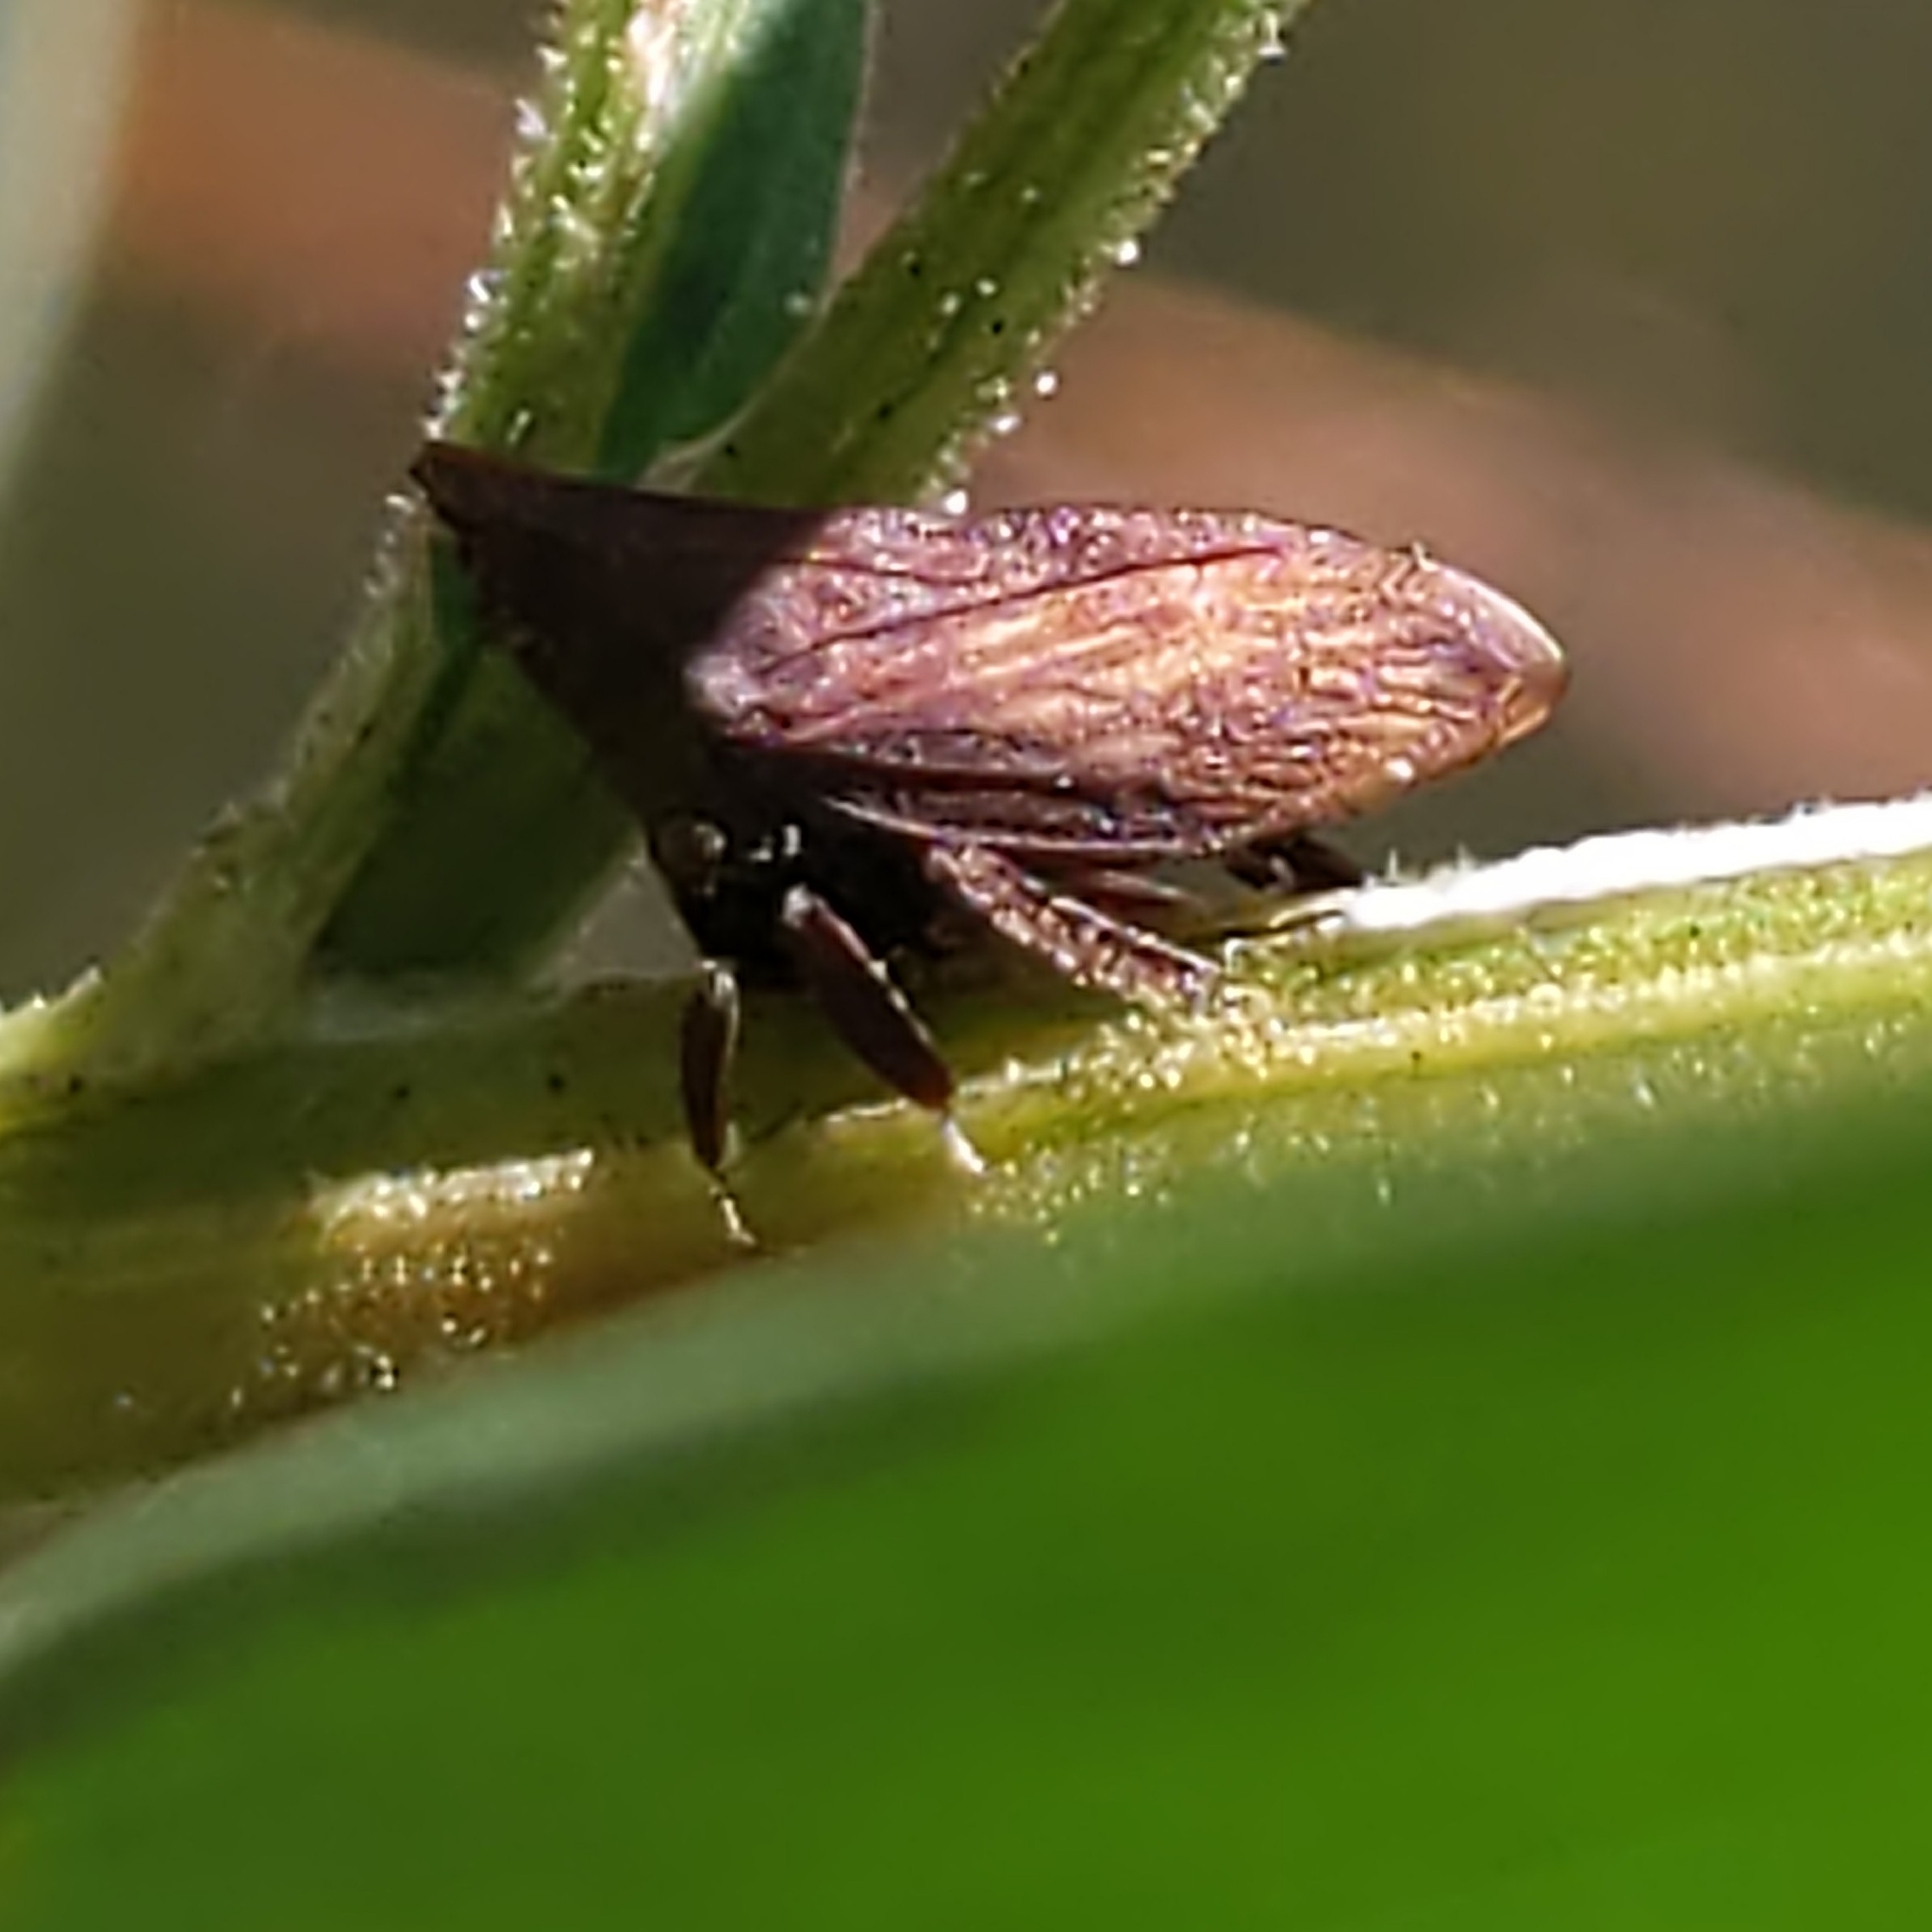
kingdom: Animalia
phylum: Arthropoda
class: Insecta
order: Hemiptera
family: Membracidae
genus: Enchenopa
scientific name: Enchenopa latipes
